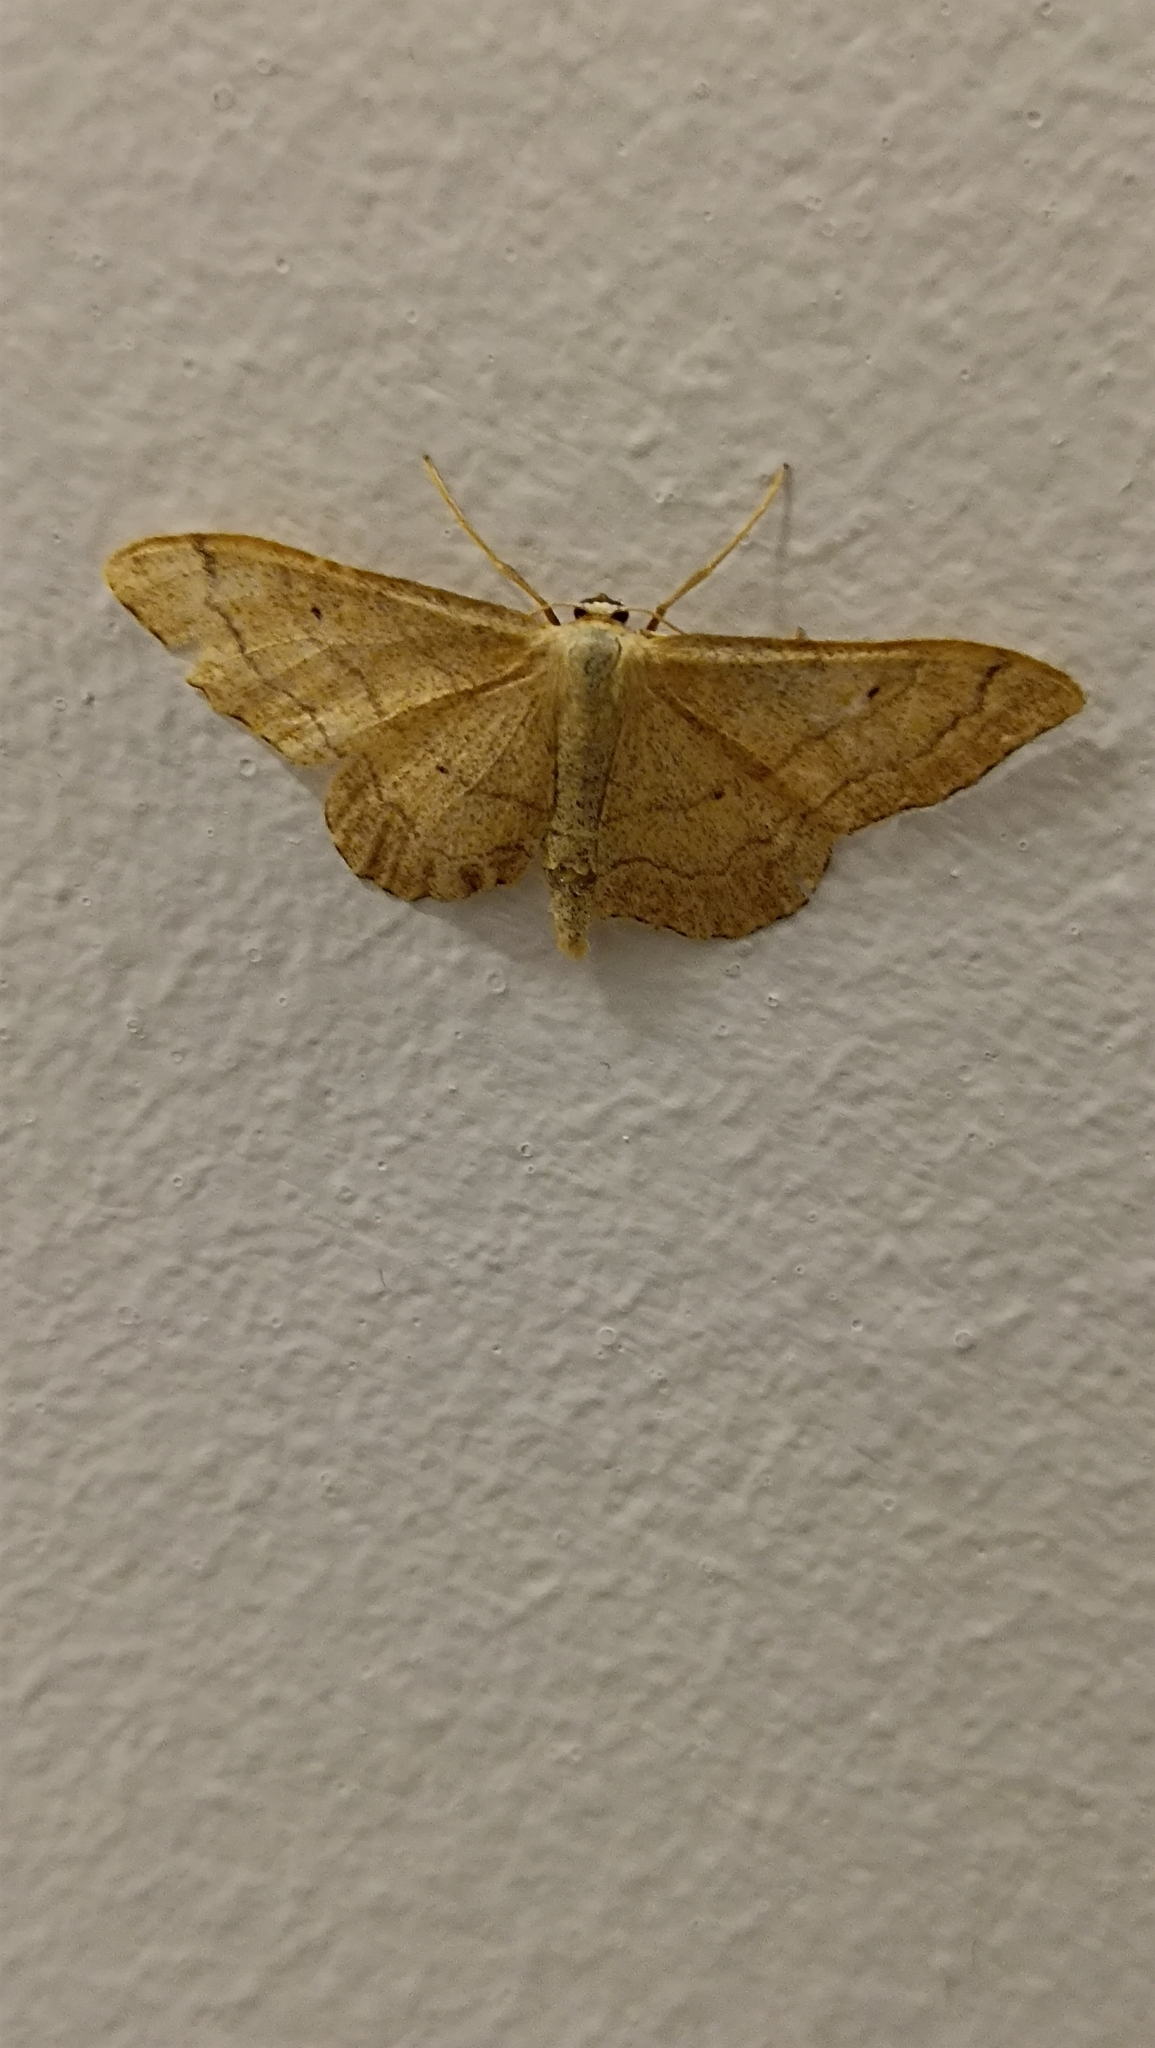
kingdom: Animalia
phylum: Arthropoda
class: Insecta
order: Lepidoptera
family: Geometridae
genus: Idaea
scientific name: Idaea aversata
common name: Riband wave
